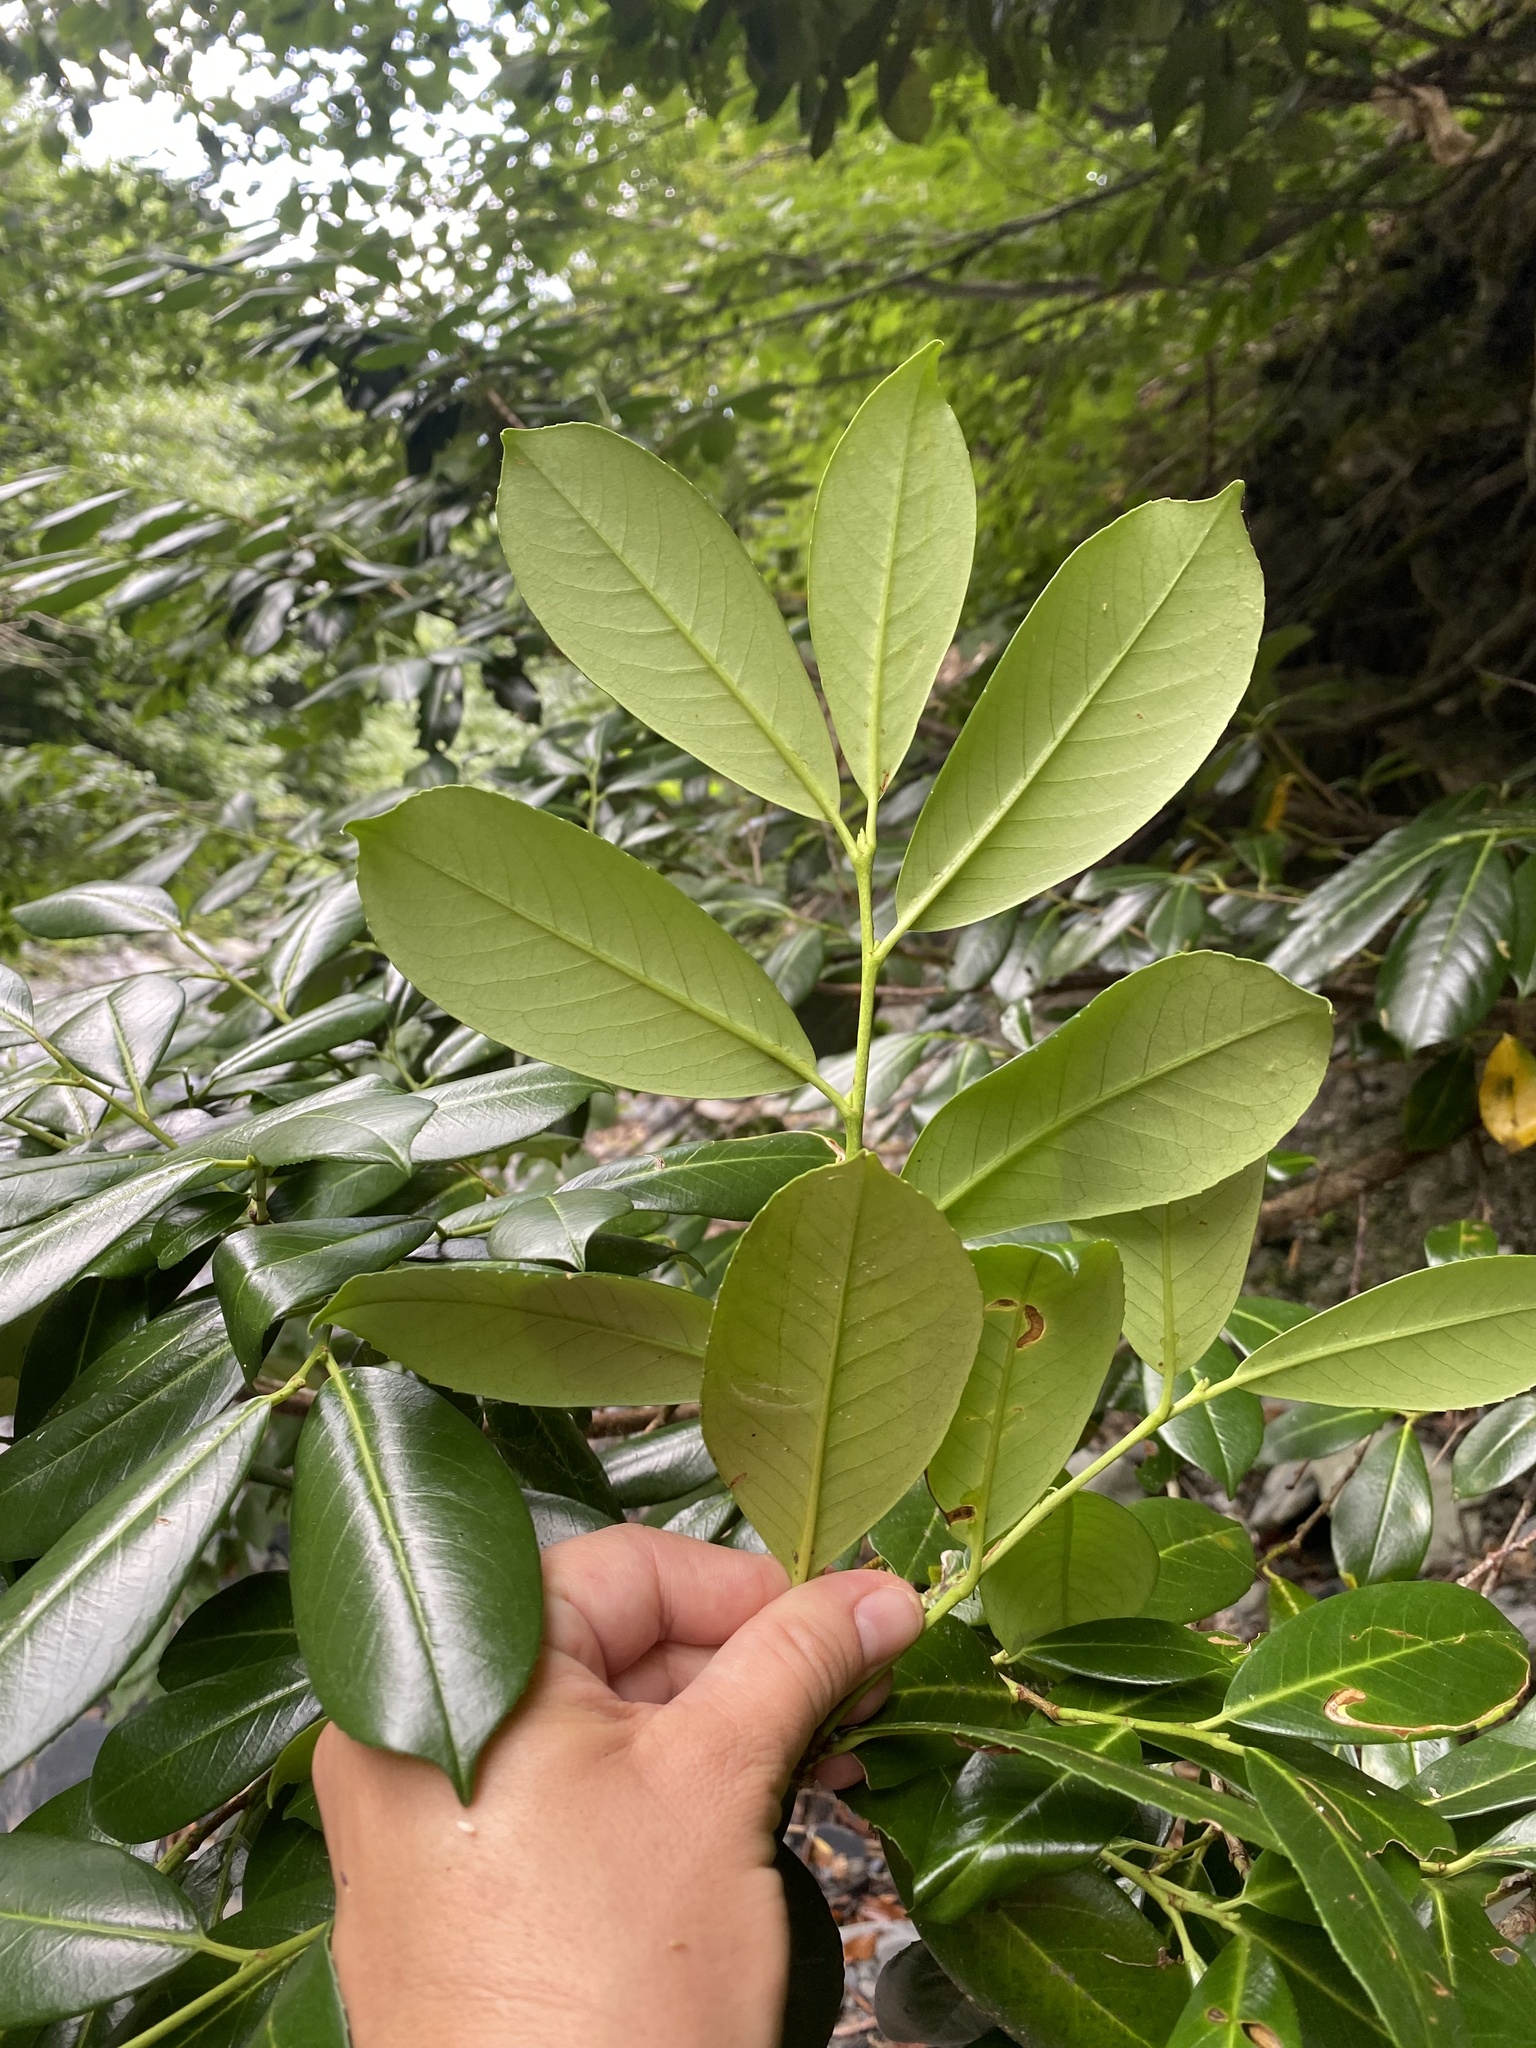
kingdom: Plantae
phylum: Tracheophyta
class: Magnoliopsida
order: Rosales
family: Rosaceae
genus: Prunus
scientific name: Prunus laurocerasus
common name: Cherry laurel
